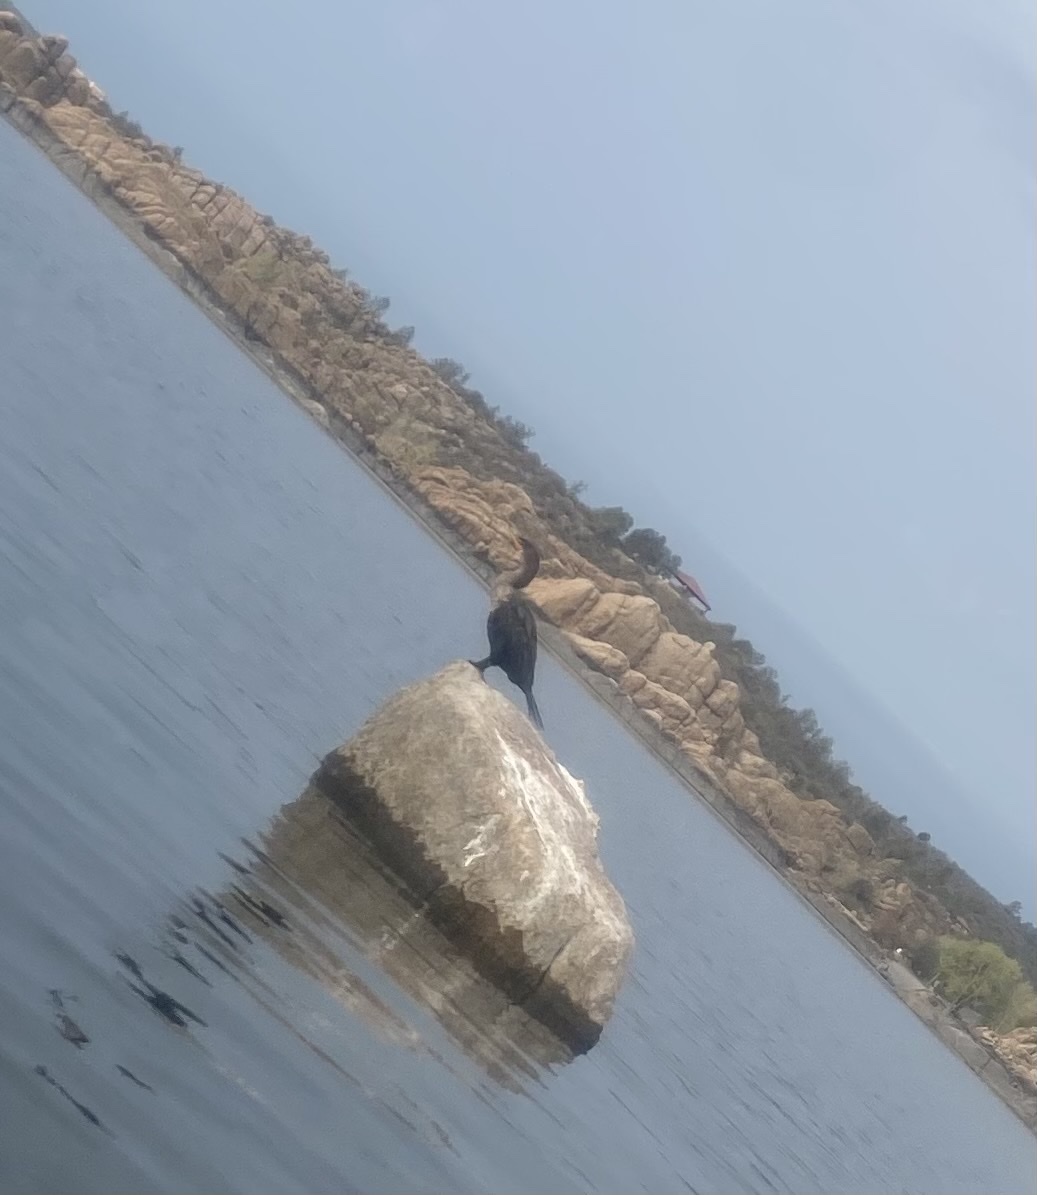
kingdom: Animalia
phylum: Chordata
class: Aves
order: Suliformes
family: Phalacrocoracidae
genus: Phalacrocorax
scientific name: Phalacrocorax auritus
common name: Double-crested cormorant
